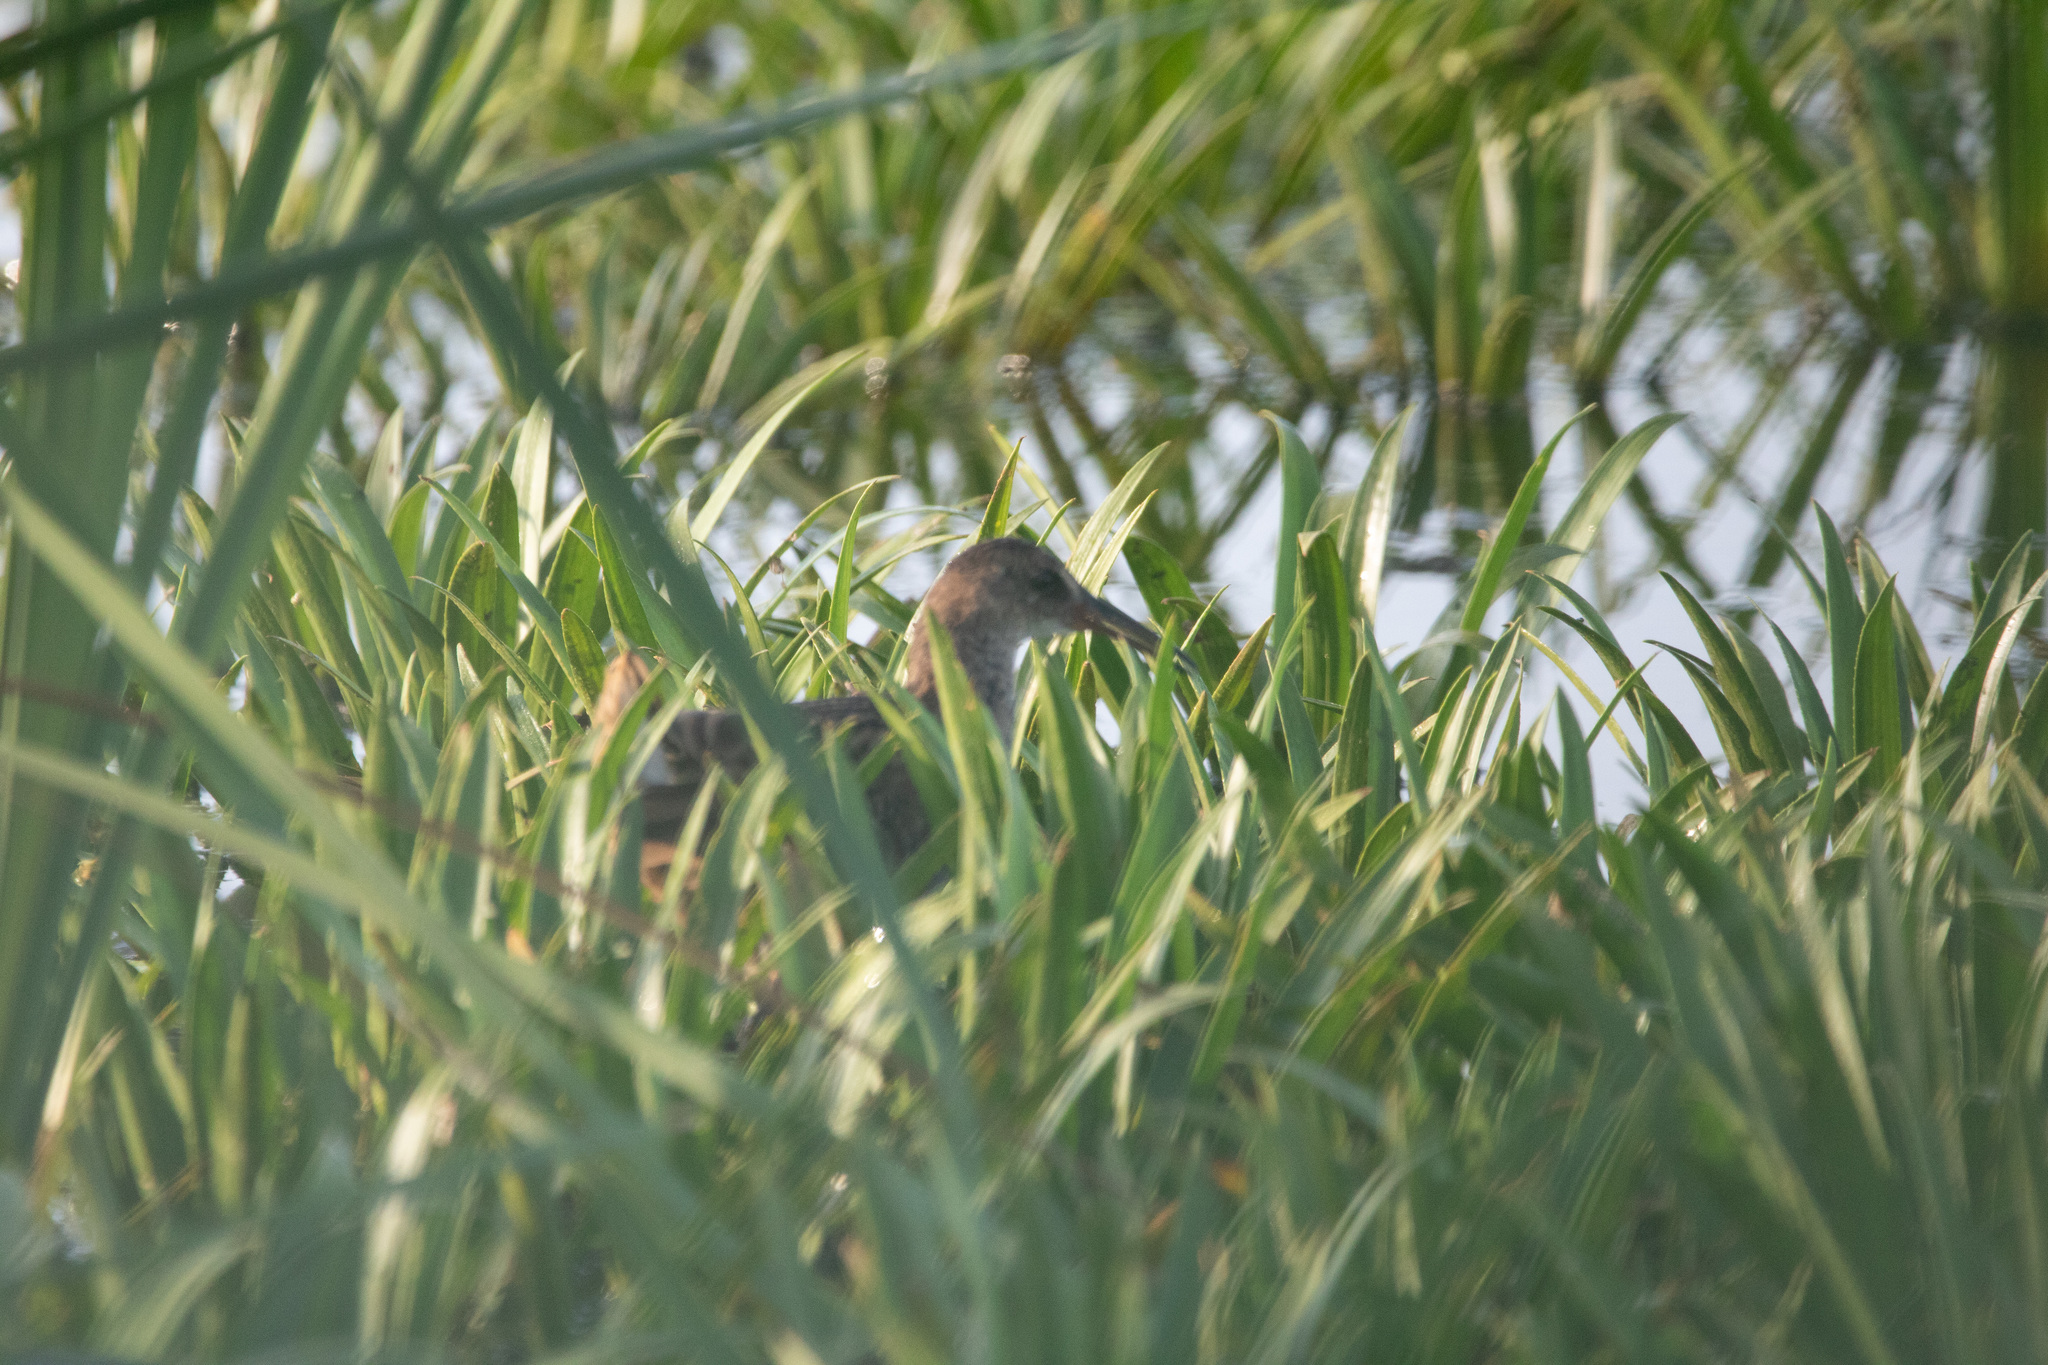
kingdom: Animalia
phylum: Chordata
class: Aves
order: Gruiformes
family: Rallidae
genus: Rallus
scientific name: Rallus aquaticus
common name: Water rail
